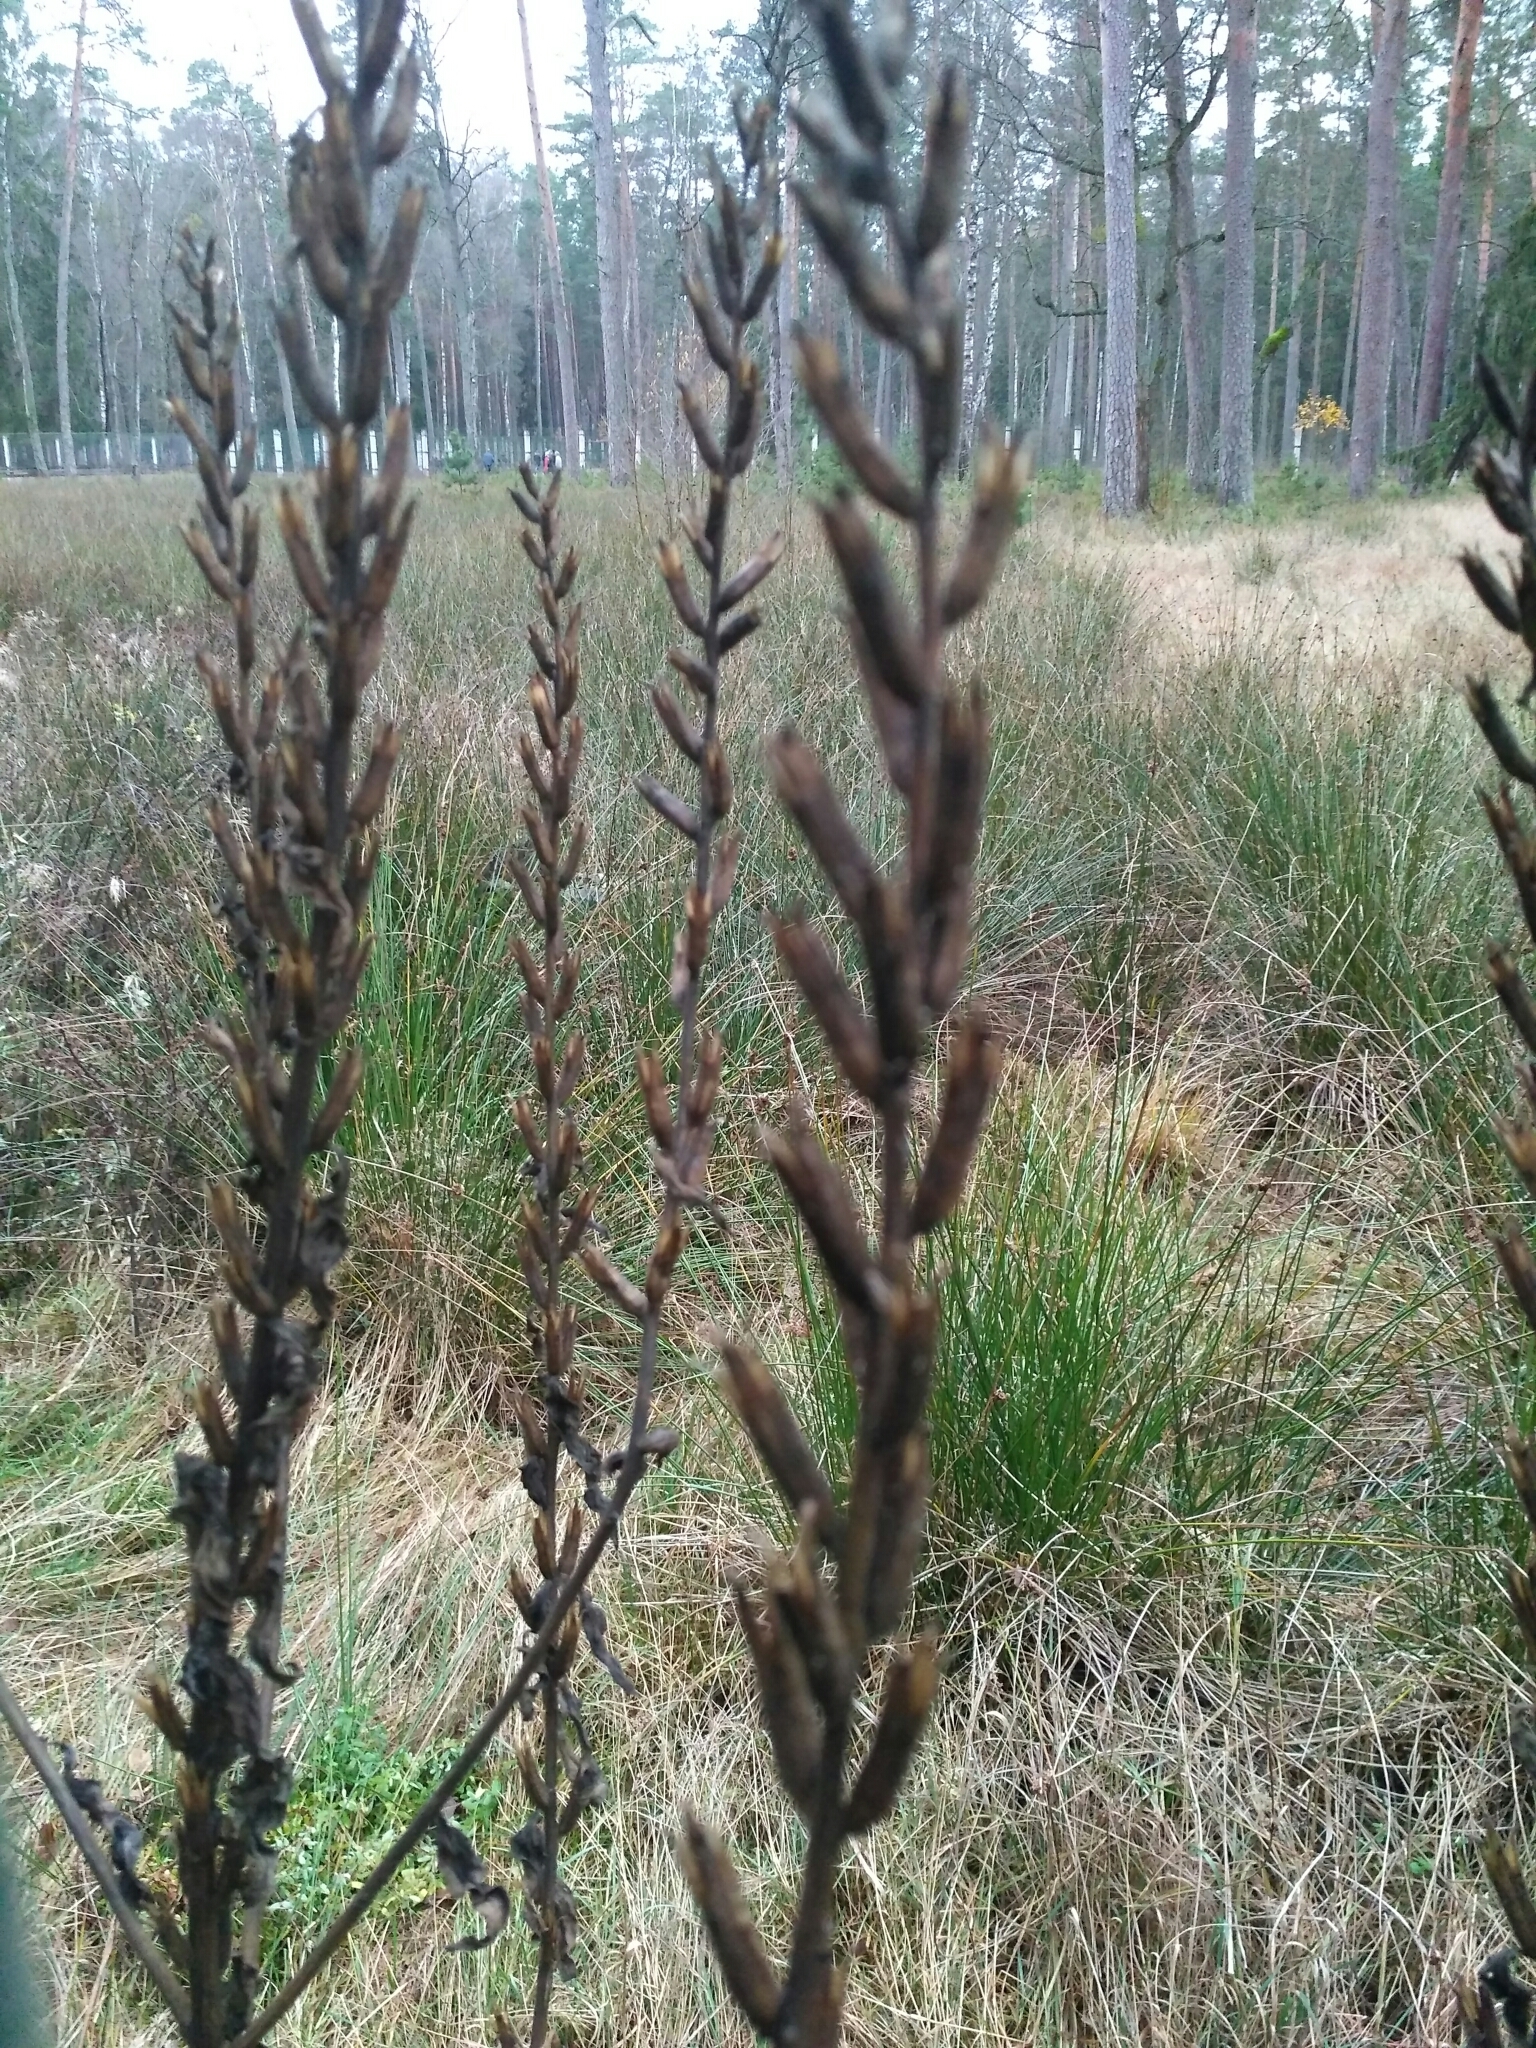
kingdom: Plantae
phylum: Tracheophyta
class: Magnoliopsida
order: Myrtales
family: Onagraceae
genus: Oenothera
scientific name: Oenothera biennis
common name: Common evening-primrose
